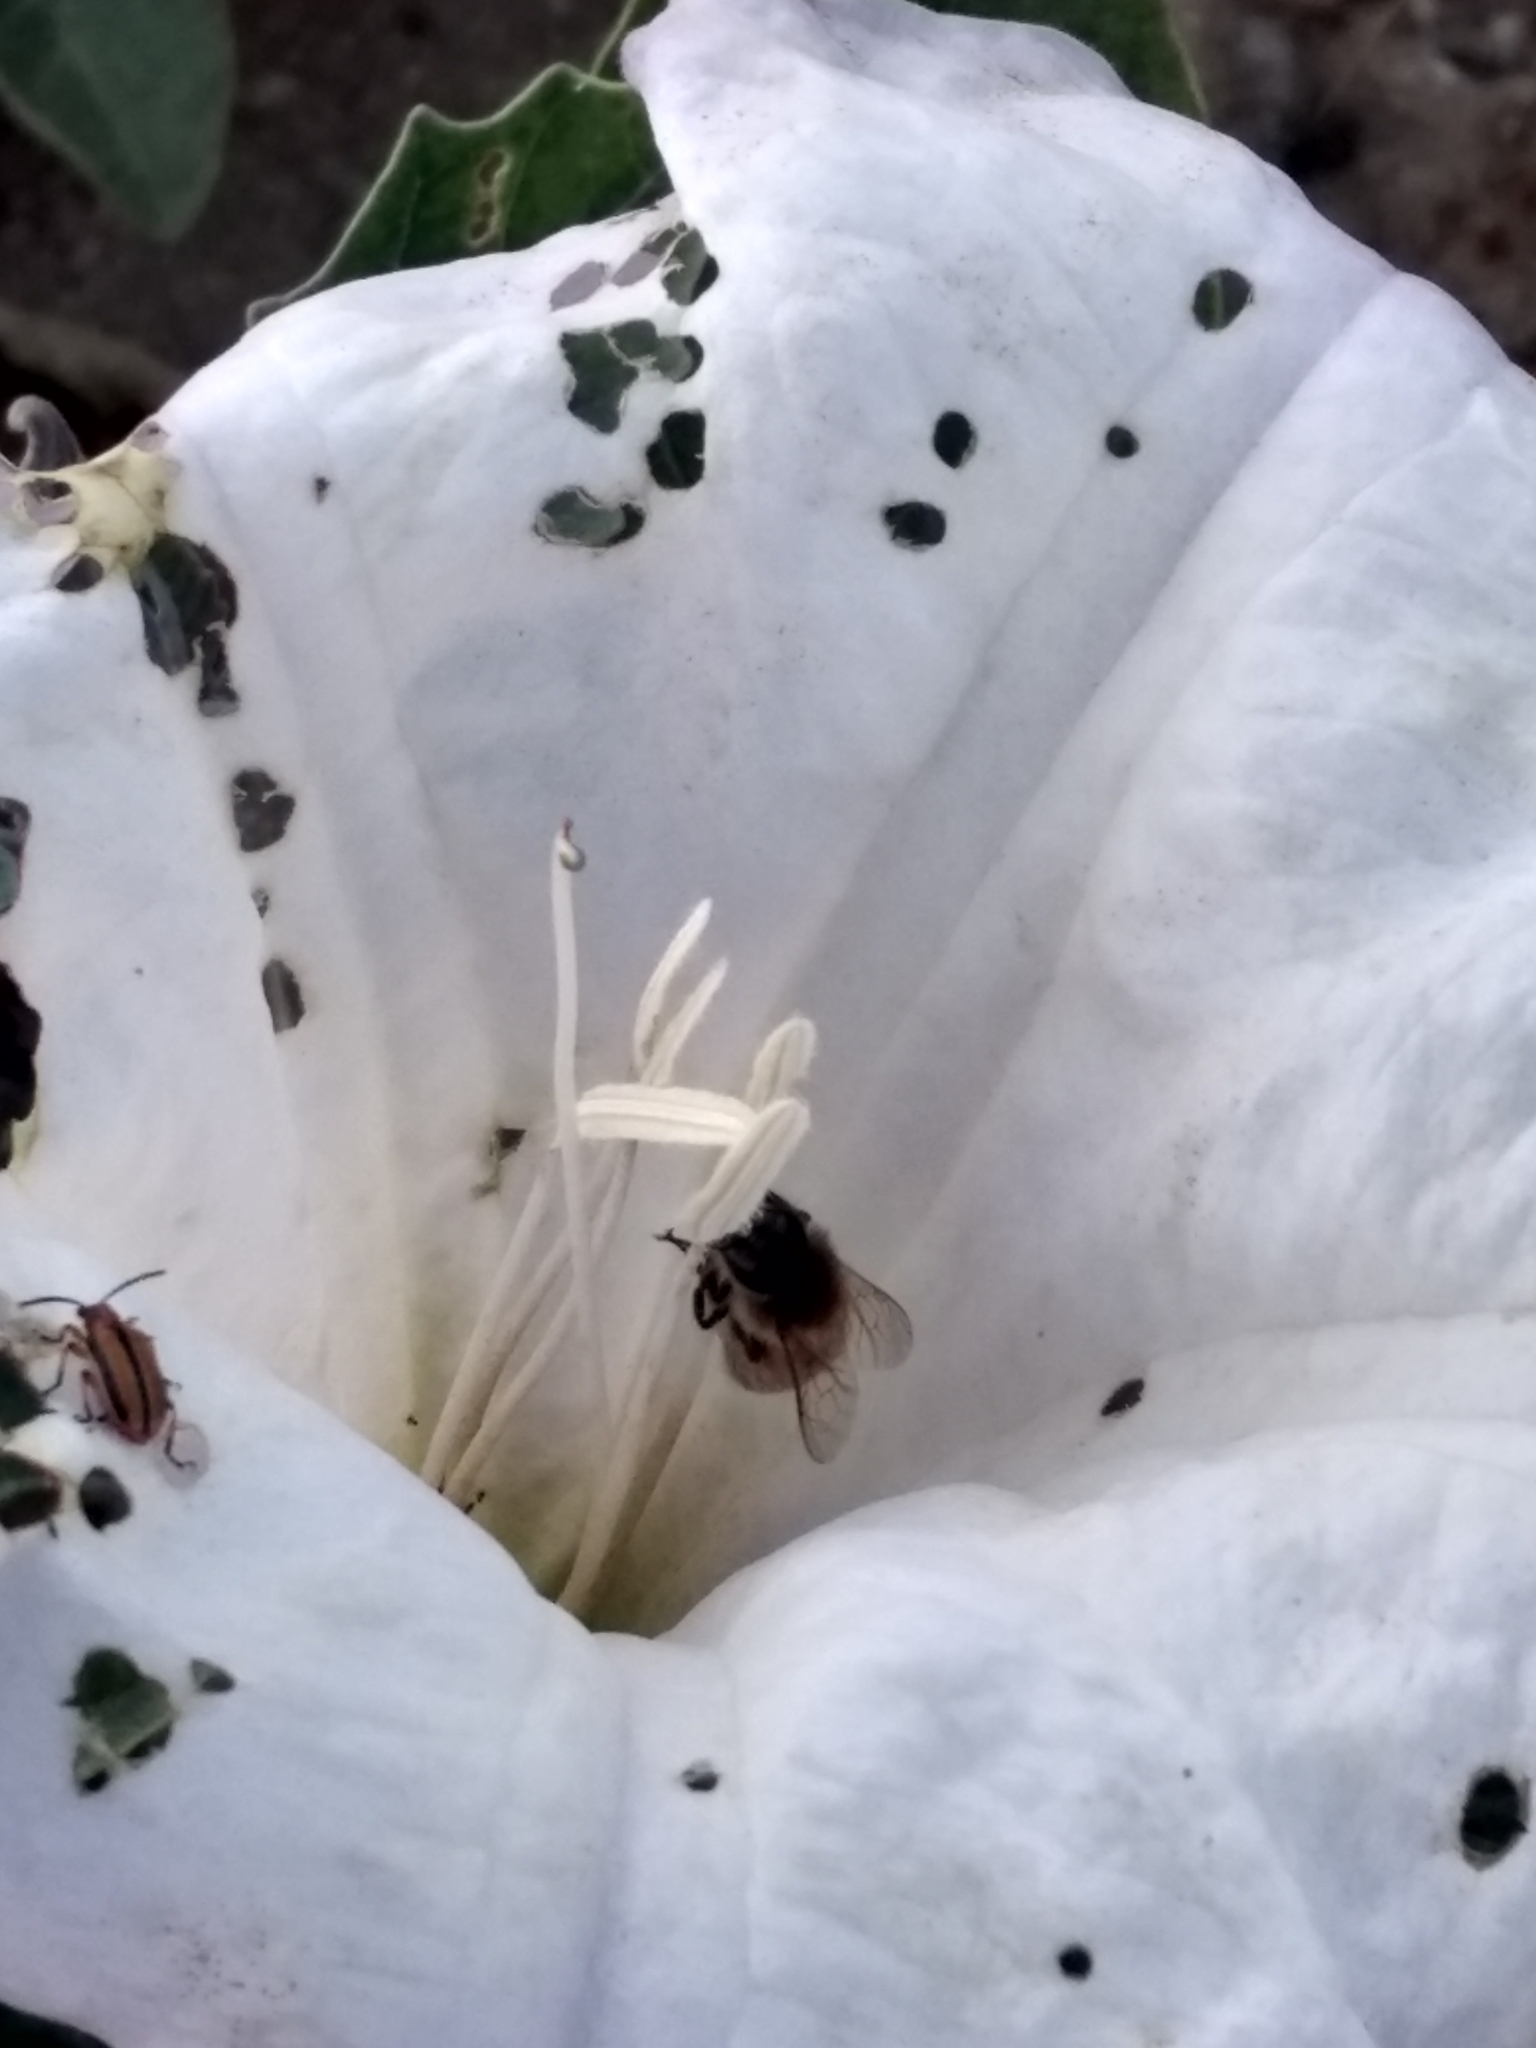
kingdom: Plantae
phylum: Tracheophyta
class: Magnoliopsida
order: Solanales
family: Solanaceae
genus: Datura
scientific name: Datura wrightii
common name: Sacred thorn-apple
